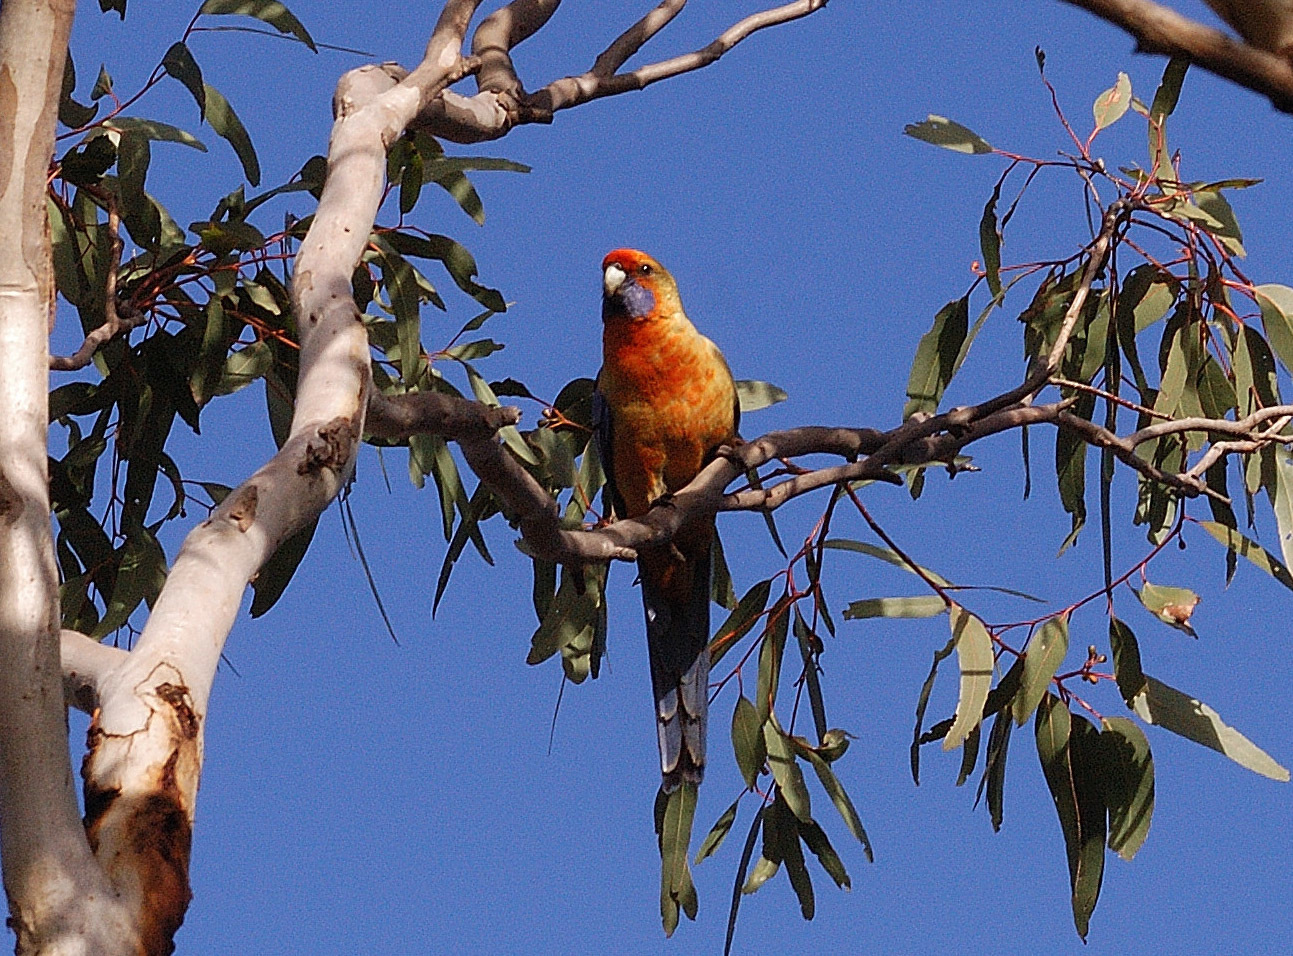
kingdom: Animalia
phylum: Chordata
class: Aves
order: Psittaciformes
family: Psittacidae
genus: Platycercus
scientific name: Platycercus elegans
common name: Crimson rosella
